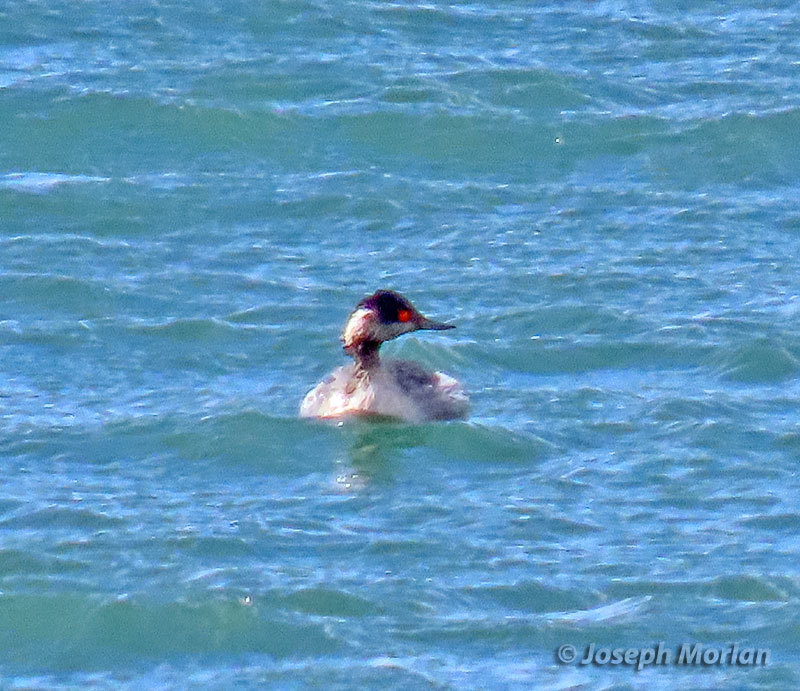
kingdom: Animalia
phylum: Chordata
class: Aves
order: Podicipediformes
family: Podicipedidae
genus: Podiceps
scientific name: Podiceps nigricollis
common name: Black-necked grebe
